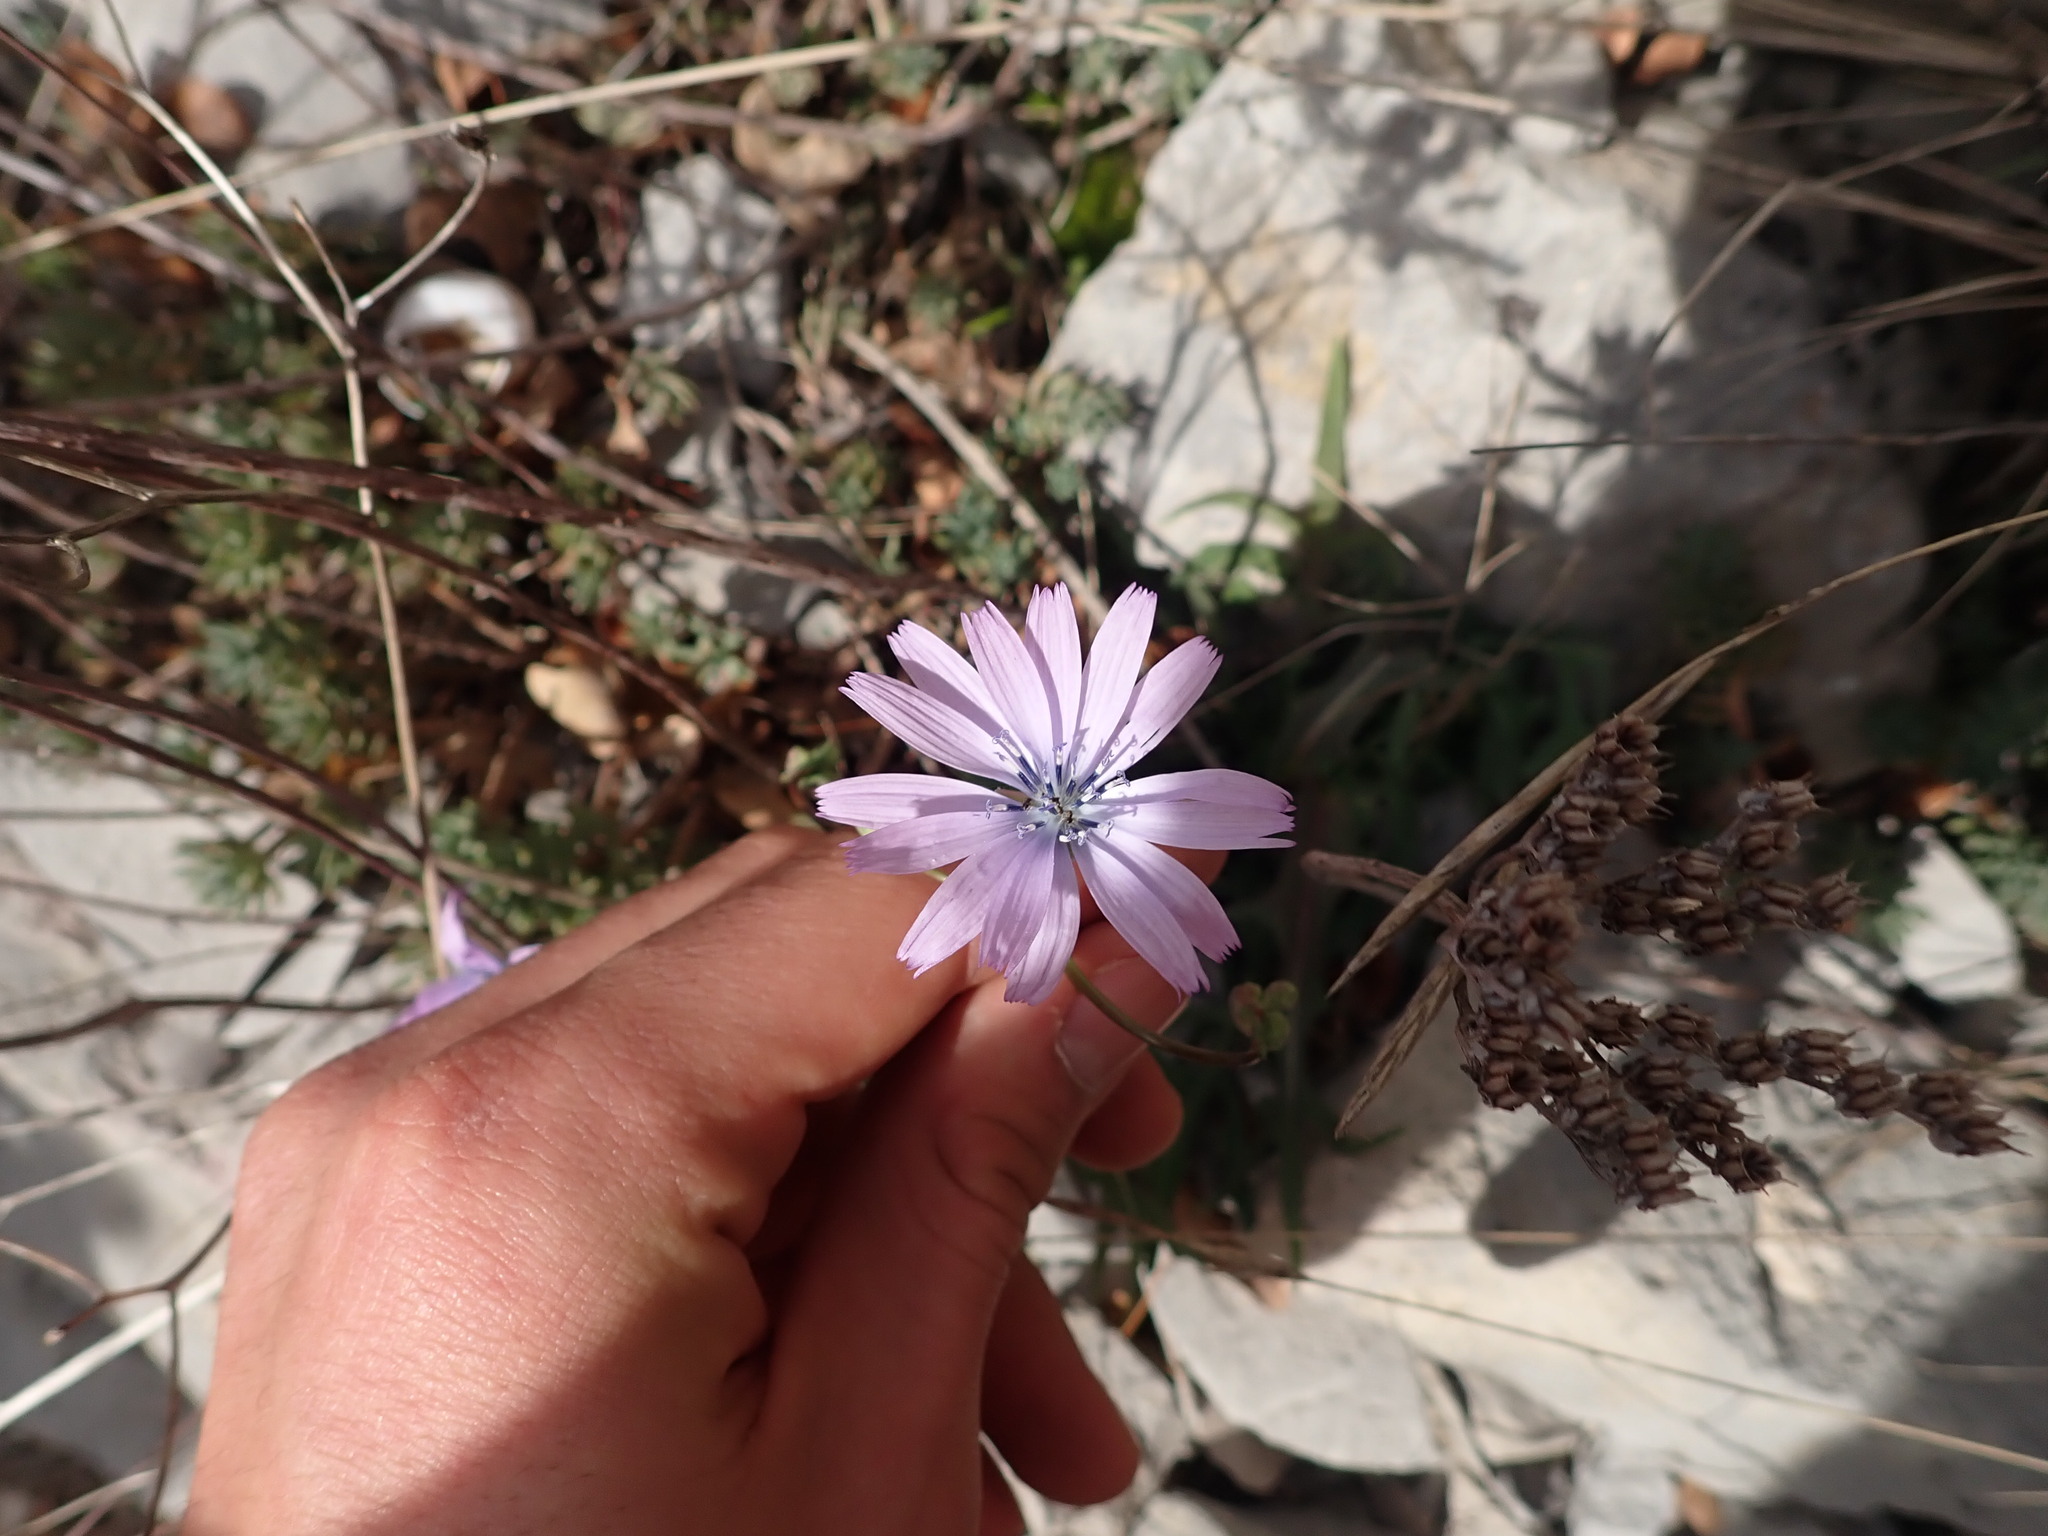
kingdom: Plantae
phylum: Tracheophyta
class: Magnoliopsida
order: Asterales
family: Asteraceae
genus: Lactuca
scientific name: Lactuca perennis
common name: Mountain lettuce
